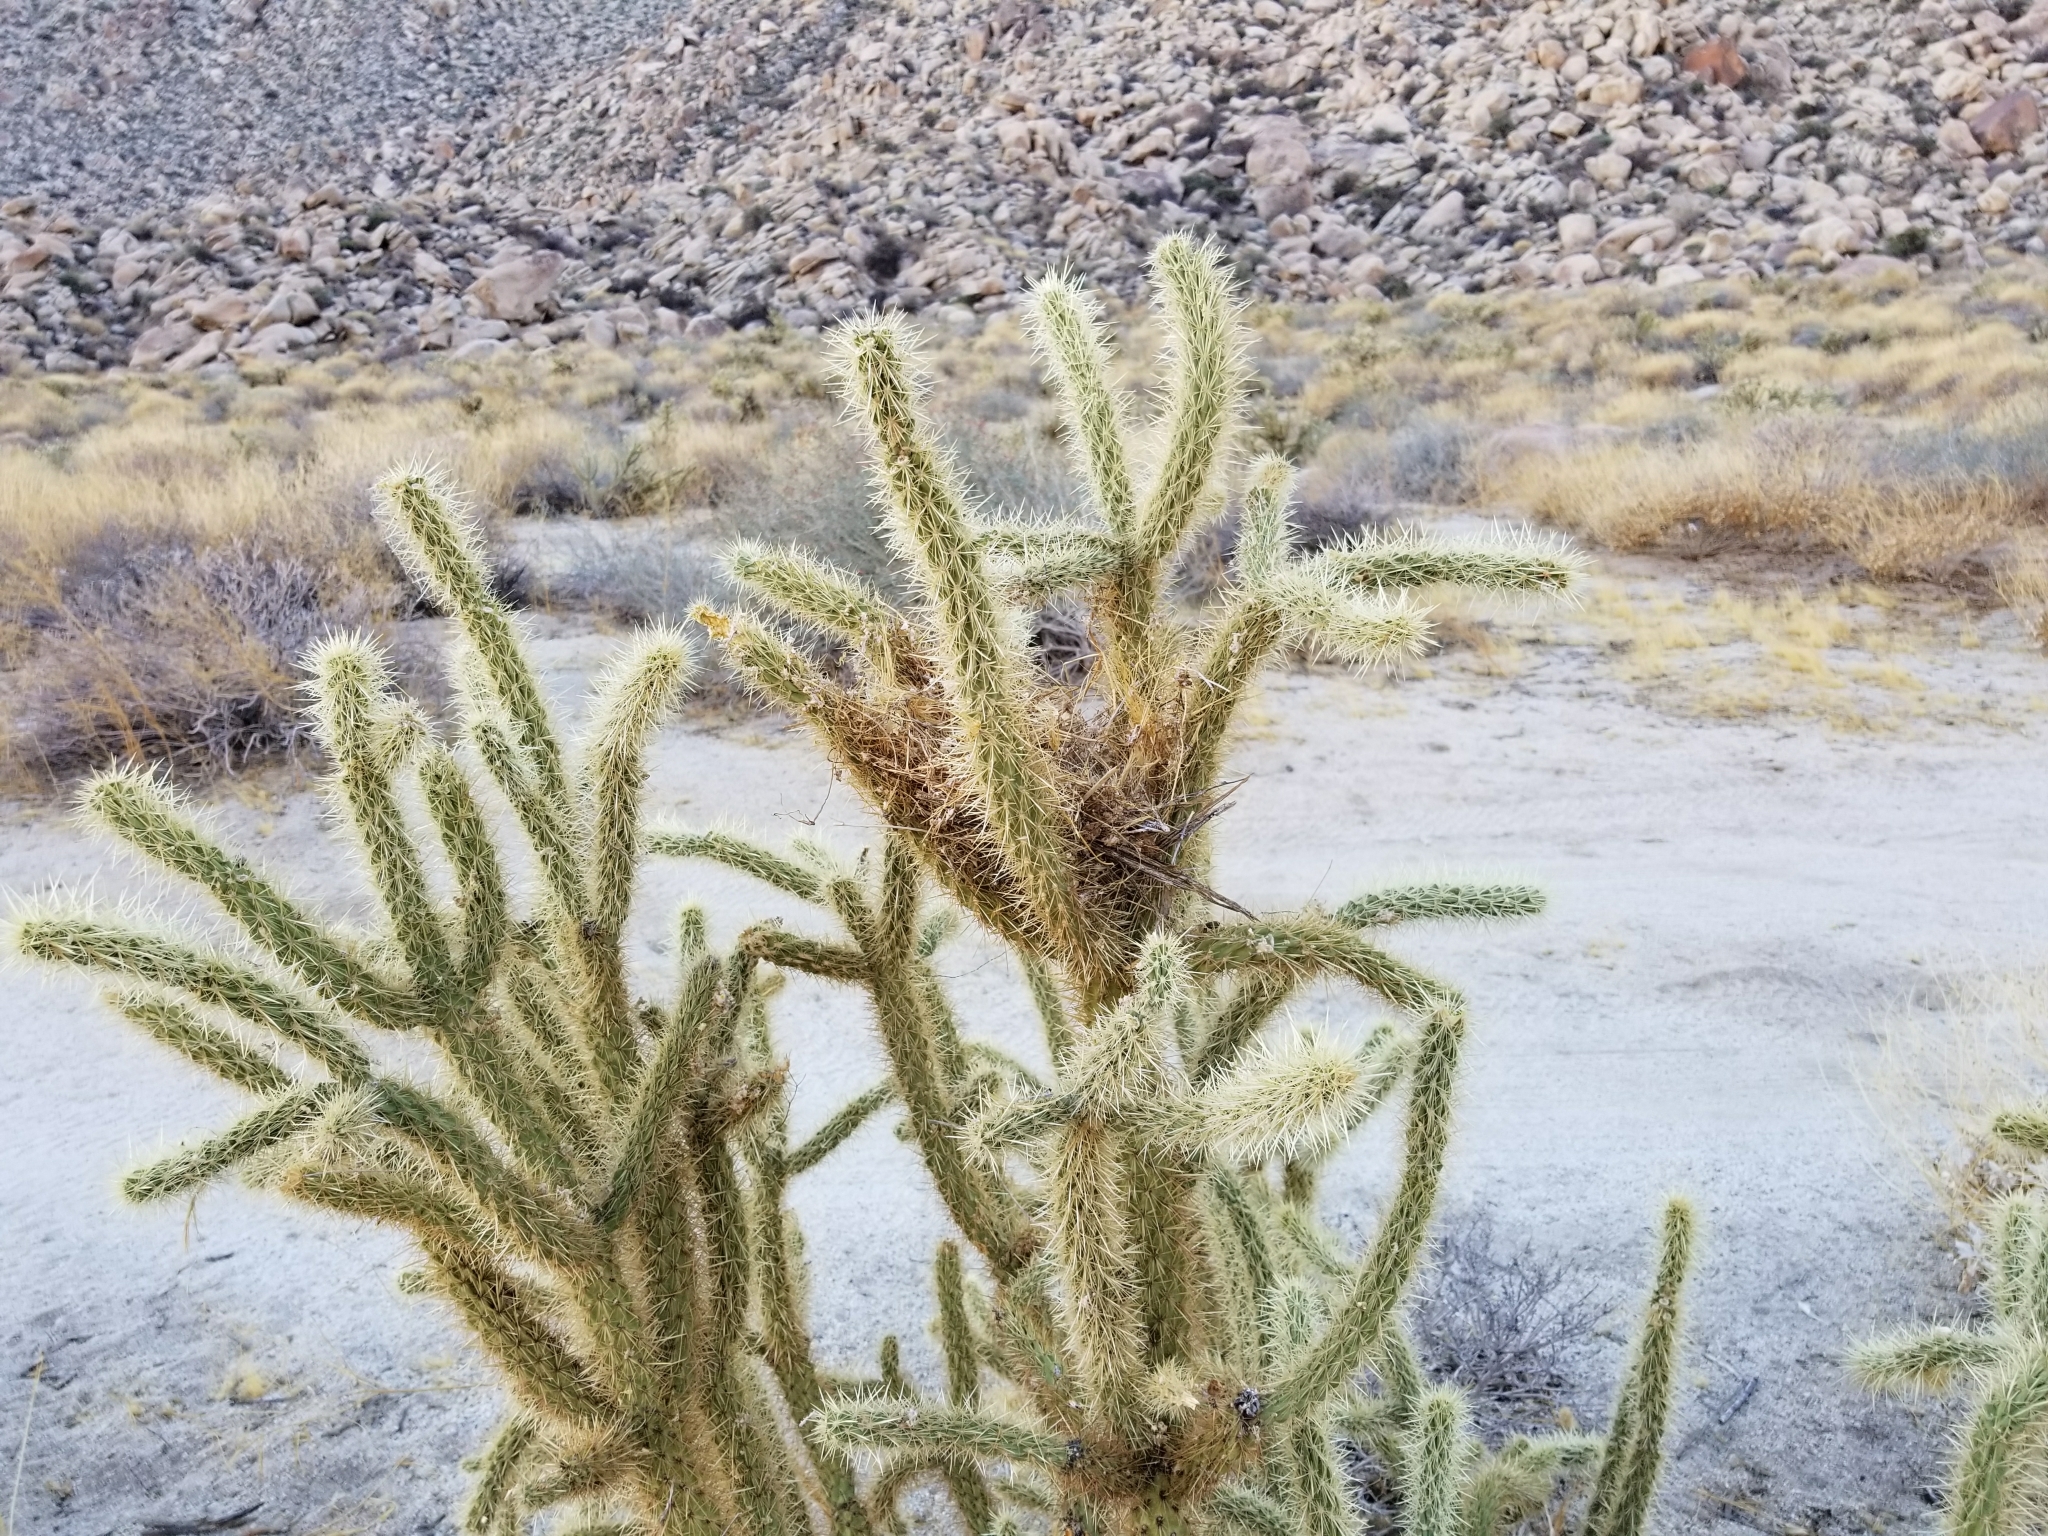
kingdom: Plantae
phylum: Tracheophyta
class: Magnoliopsida
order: Caryophyllales
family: Cactaceae
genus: Cylindropuntia
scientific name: Cylindropuntia echinocarpa
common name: Ground cholla
